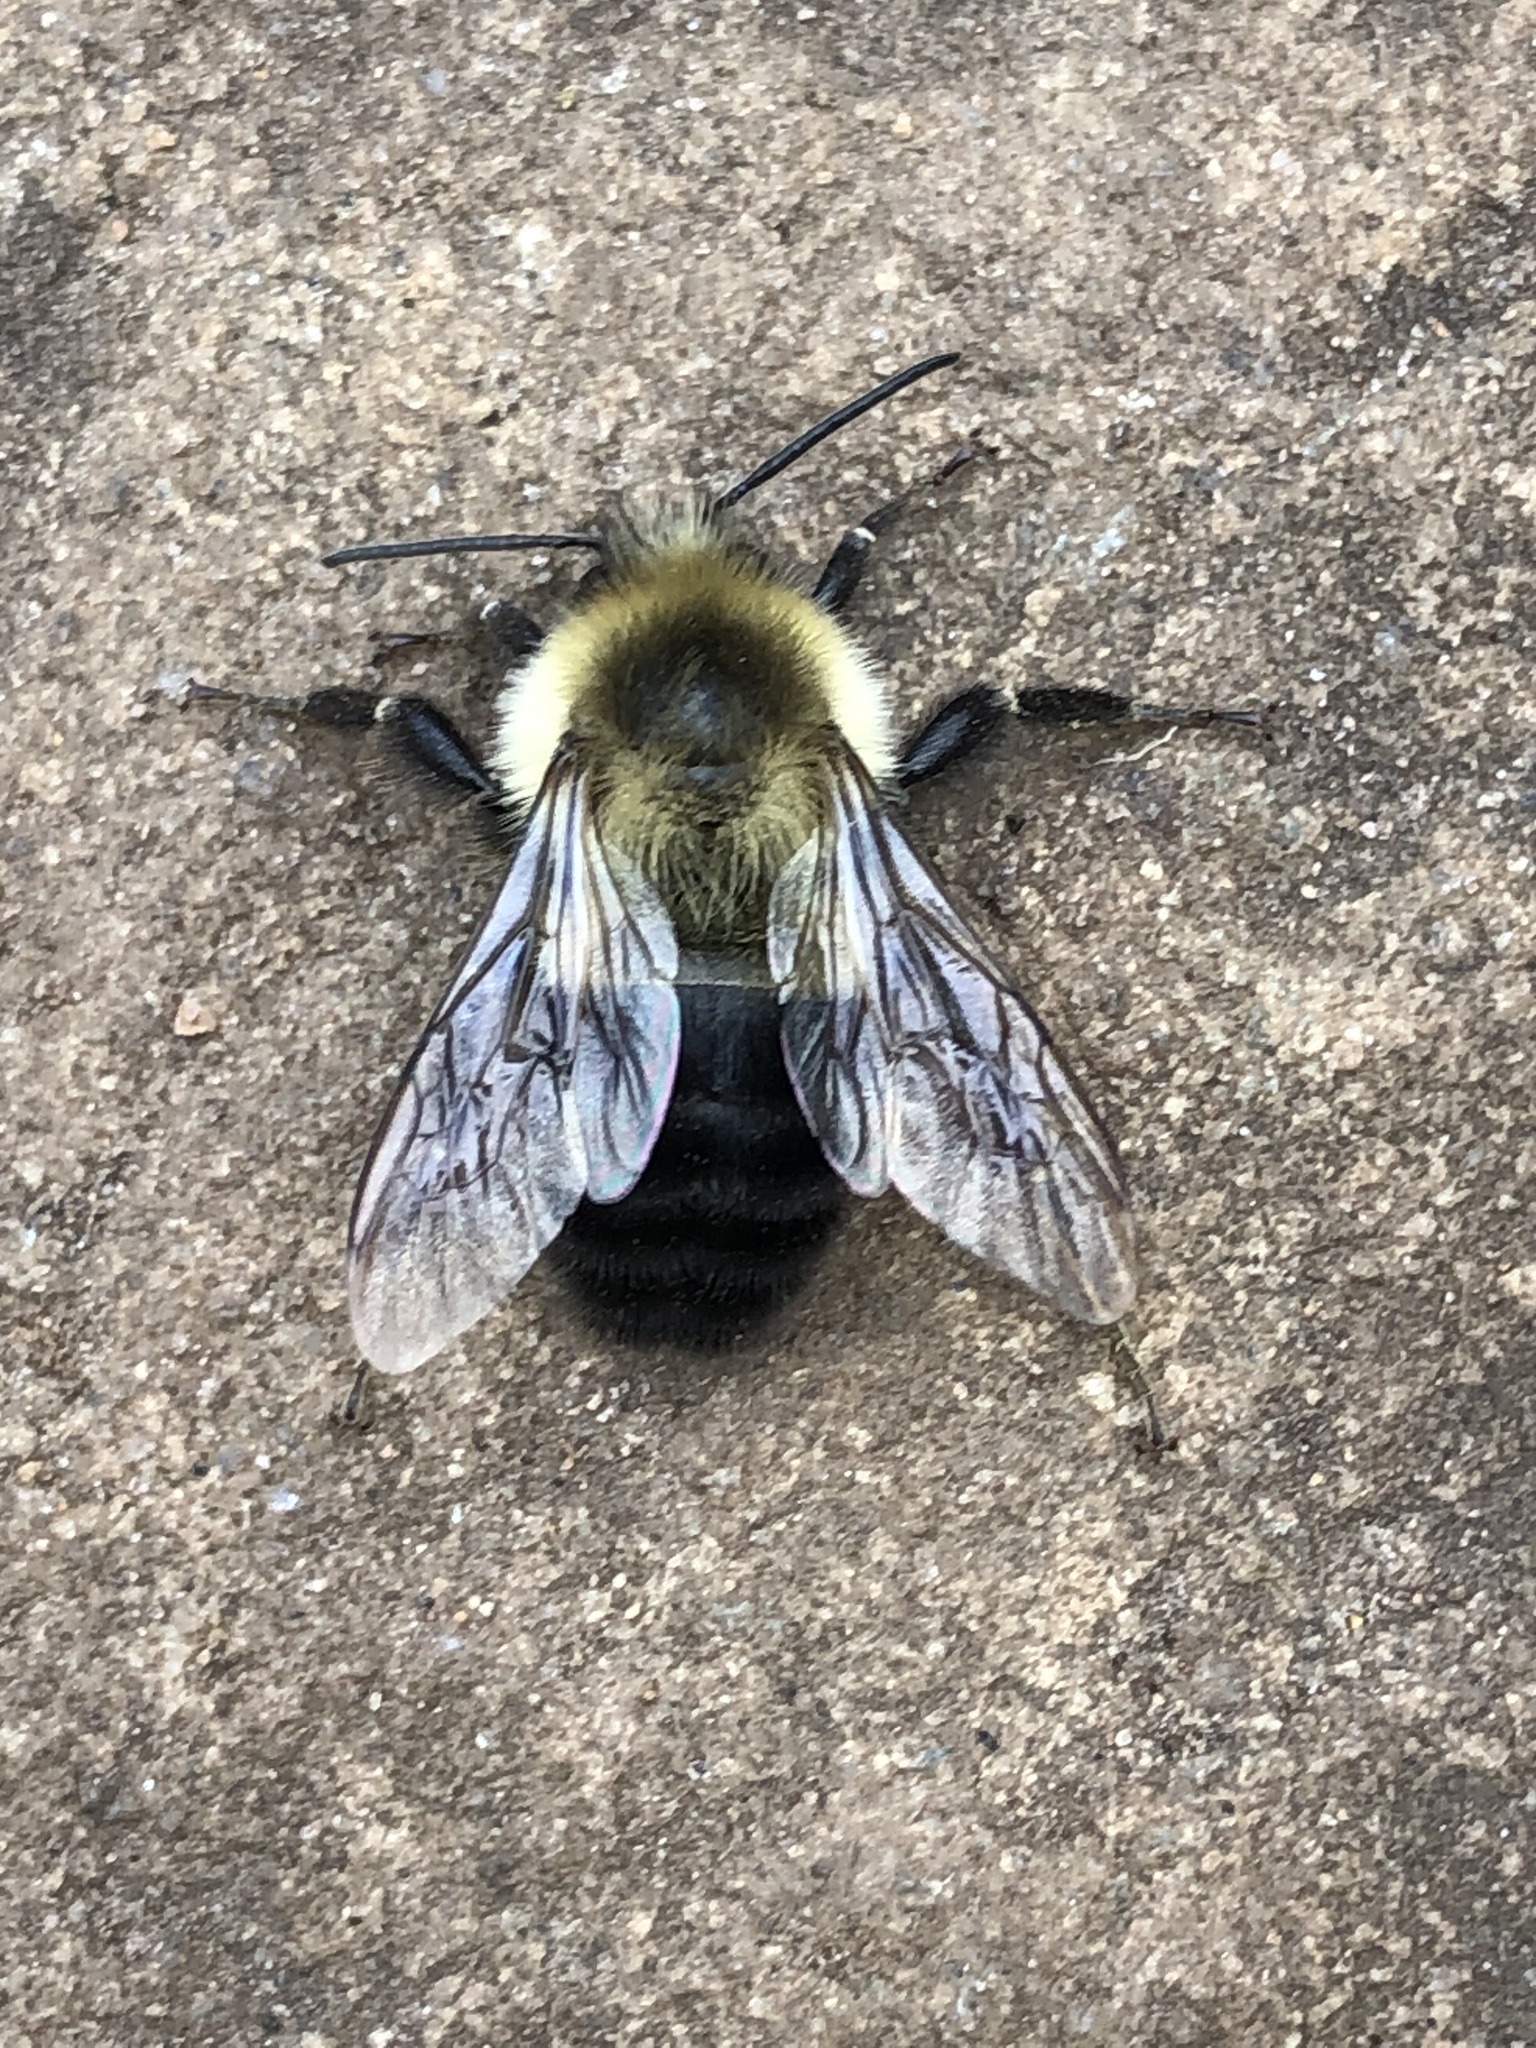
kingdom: Animalia
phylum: Arthropoda
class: Insecta
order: Hymenoptera
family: Apidae
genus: Bombus
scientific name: Bombus impatiens
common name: Common eastern bumble bee
